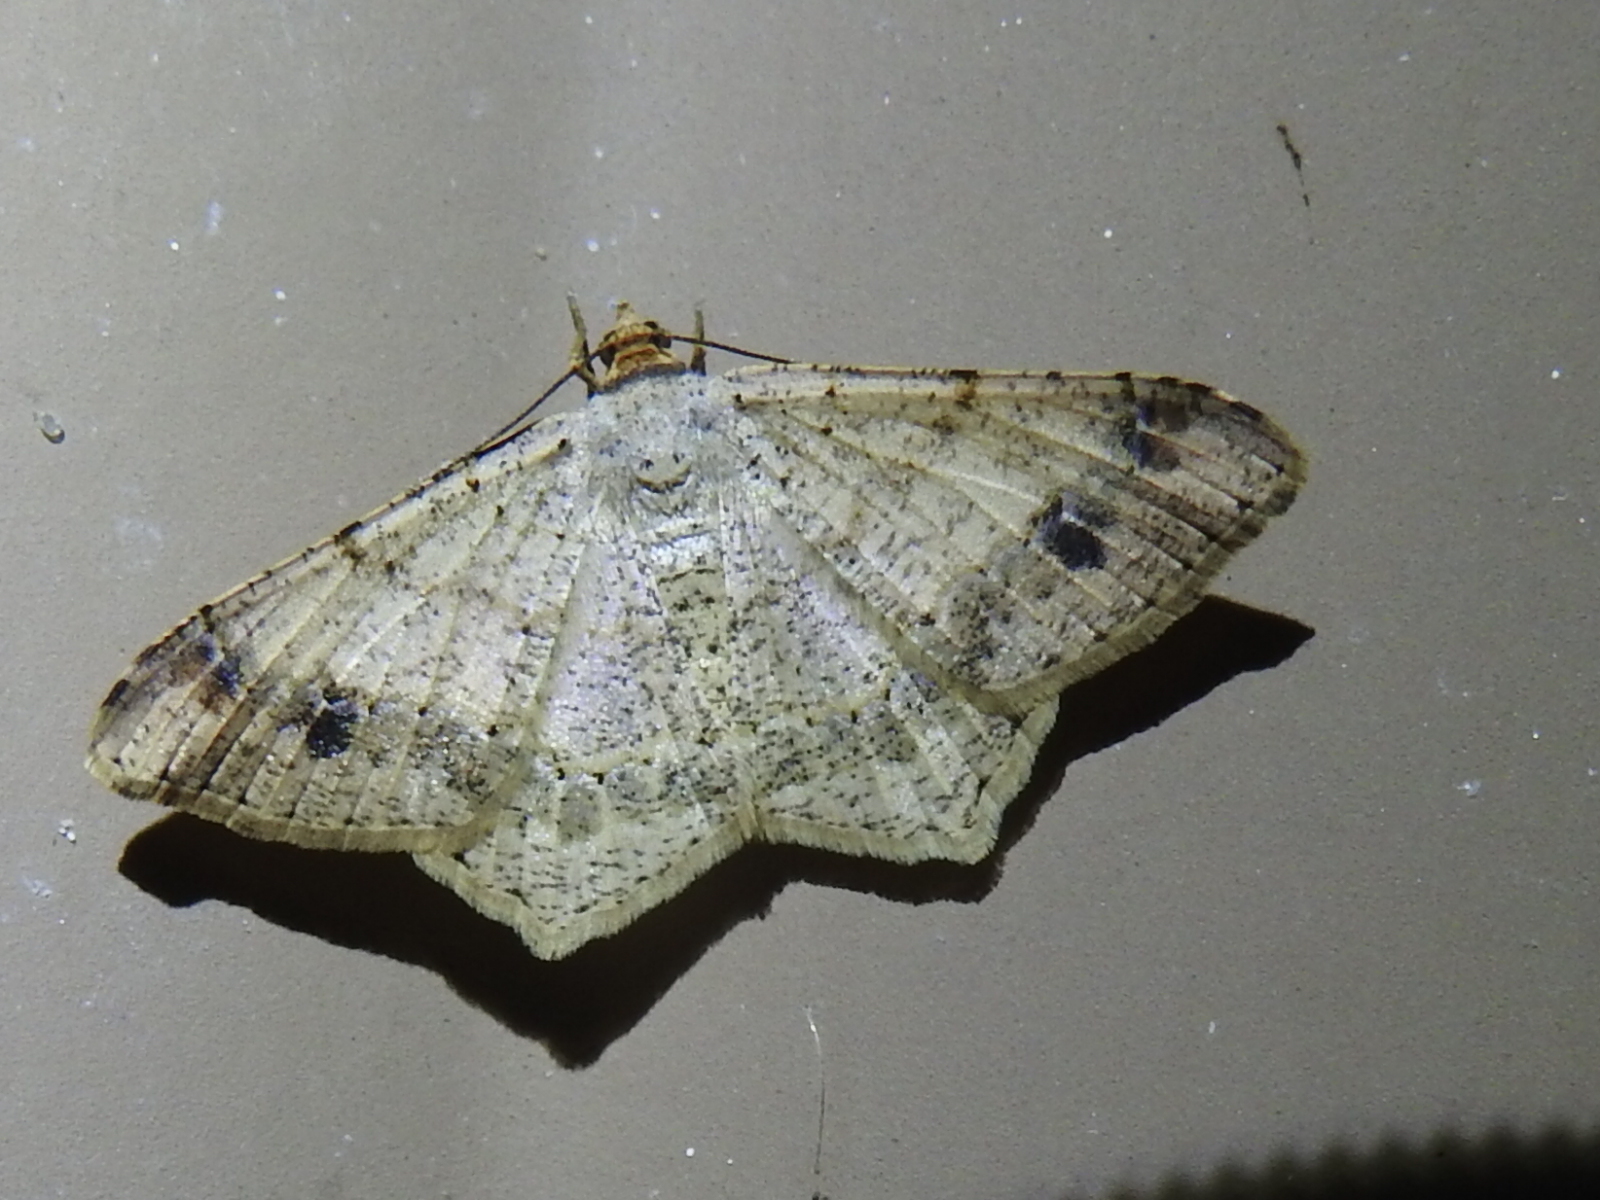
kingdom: Animalia
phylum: Arthropoda
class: Insecta
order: Lepidoptera
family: Geometridae
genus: Macaria
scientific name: Macaria abydata
